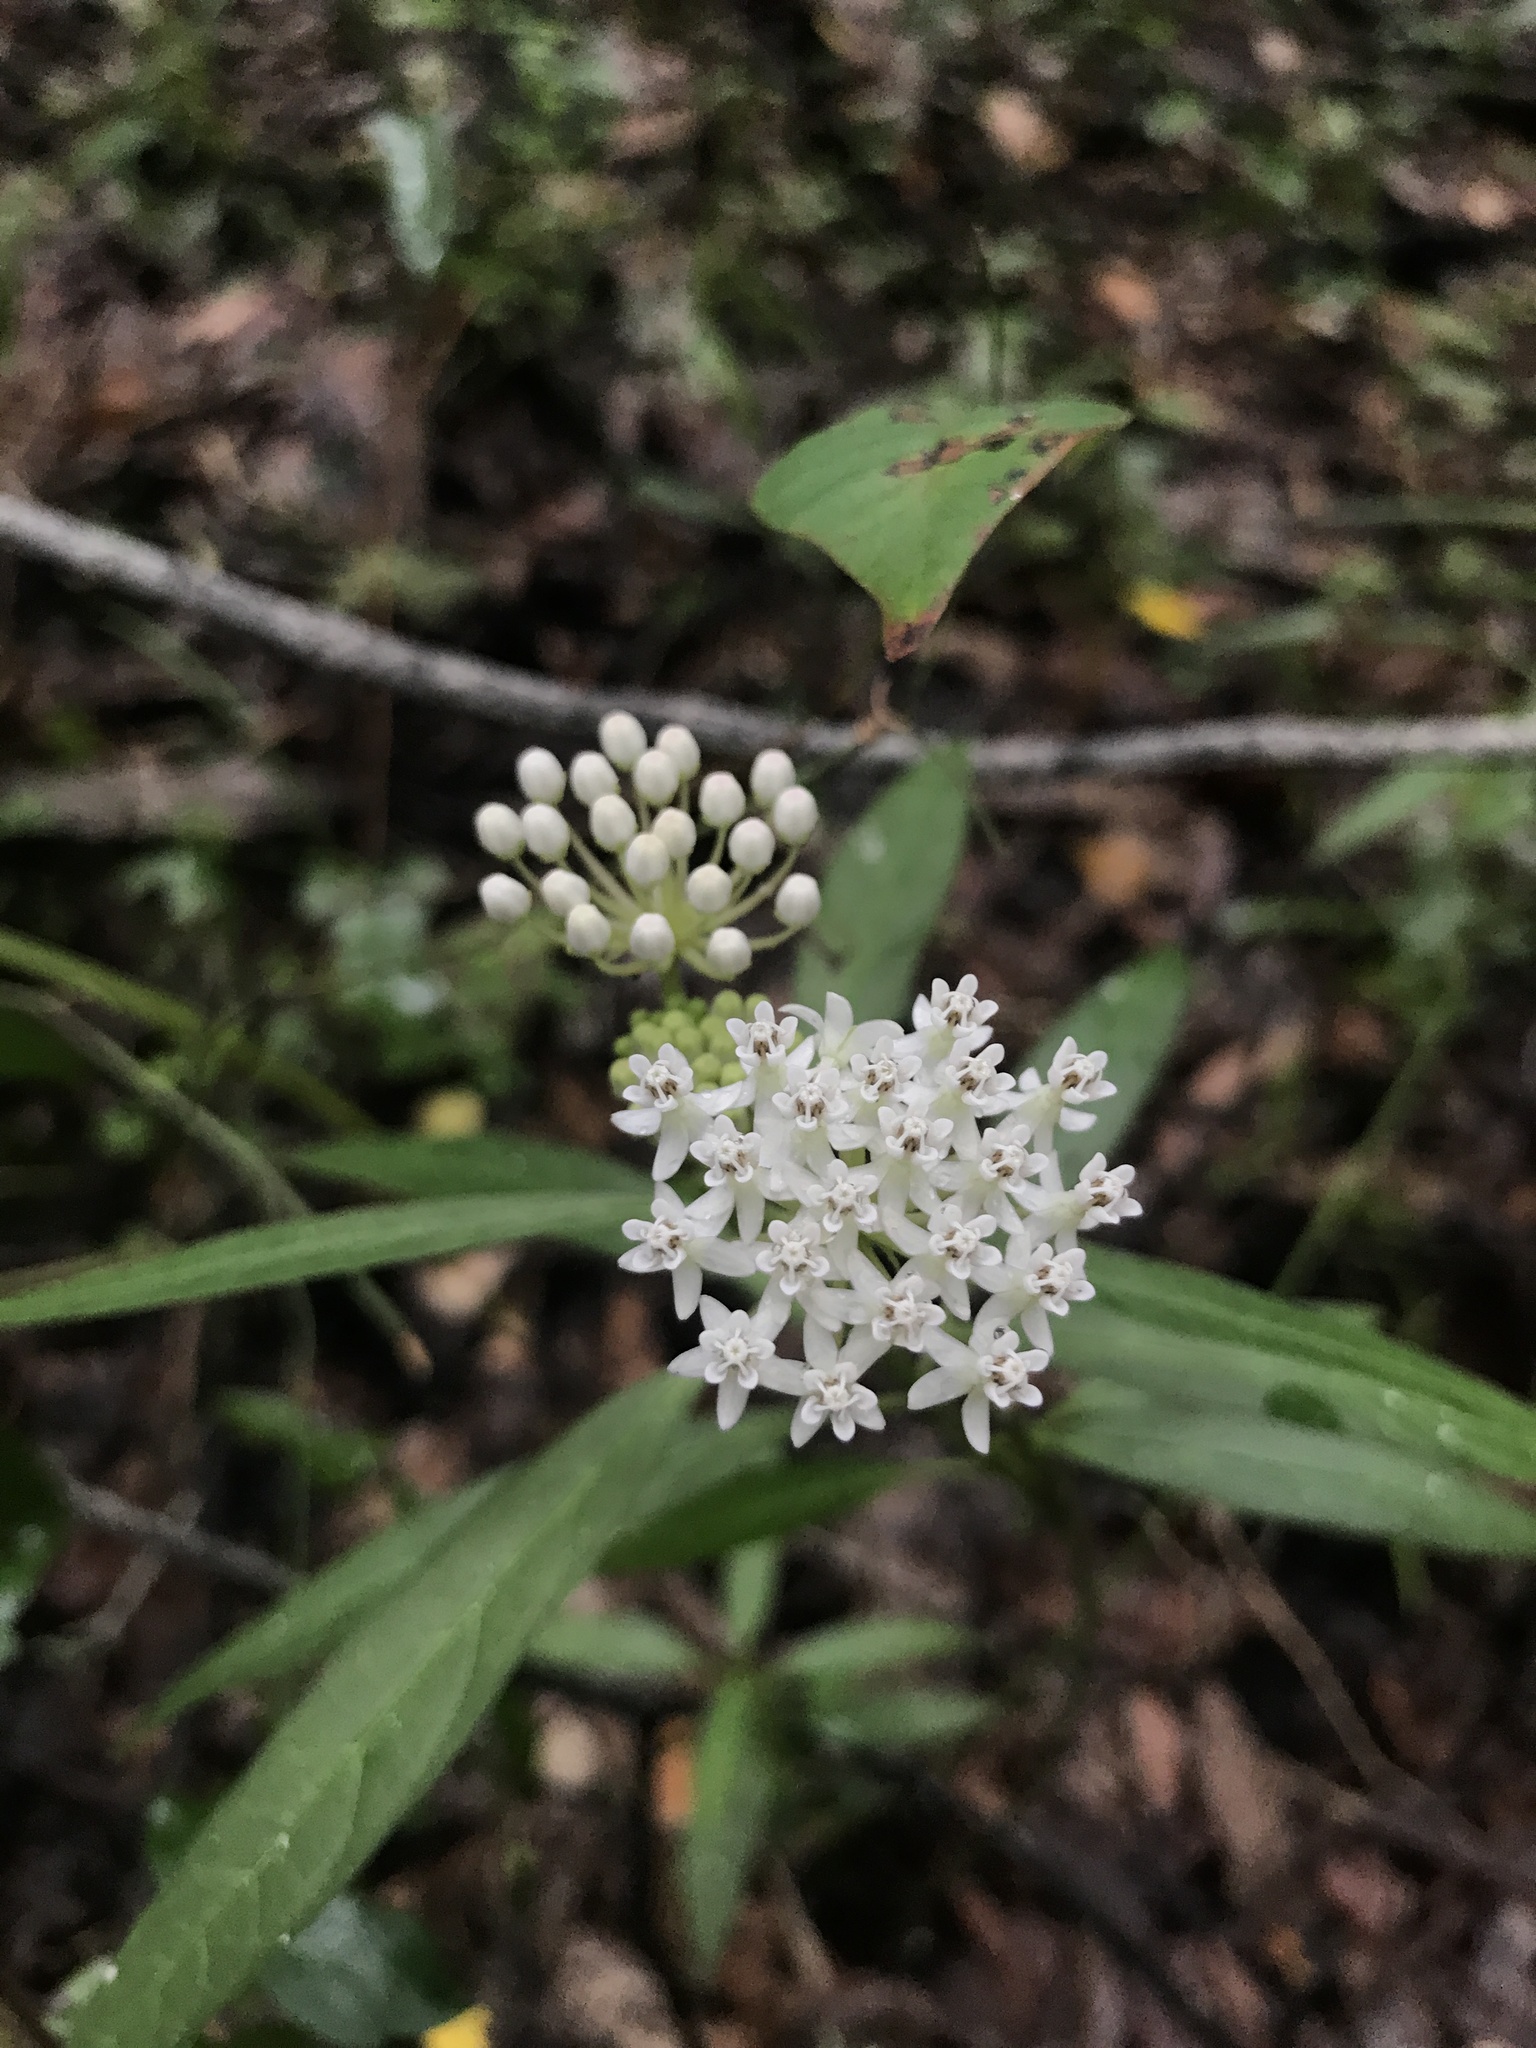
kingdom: Plantae
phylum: Tracheophyta
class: Magnoliopsida
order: Gentianales
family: Apocynaceae
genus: Asclepias
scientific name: Asclepias perennis
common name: Smooth-seed milkweed
